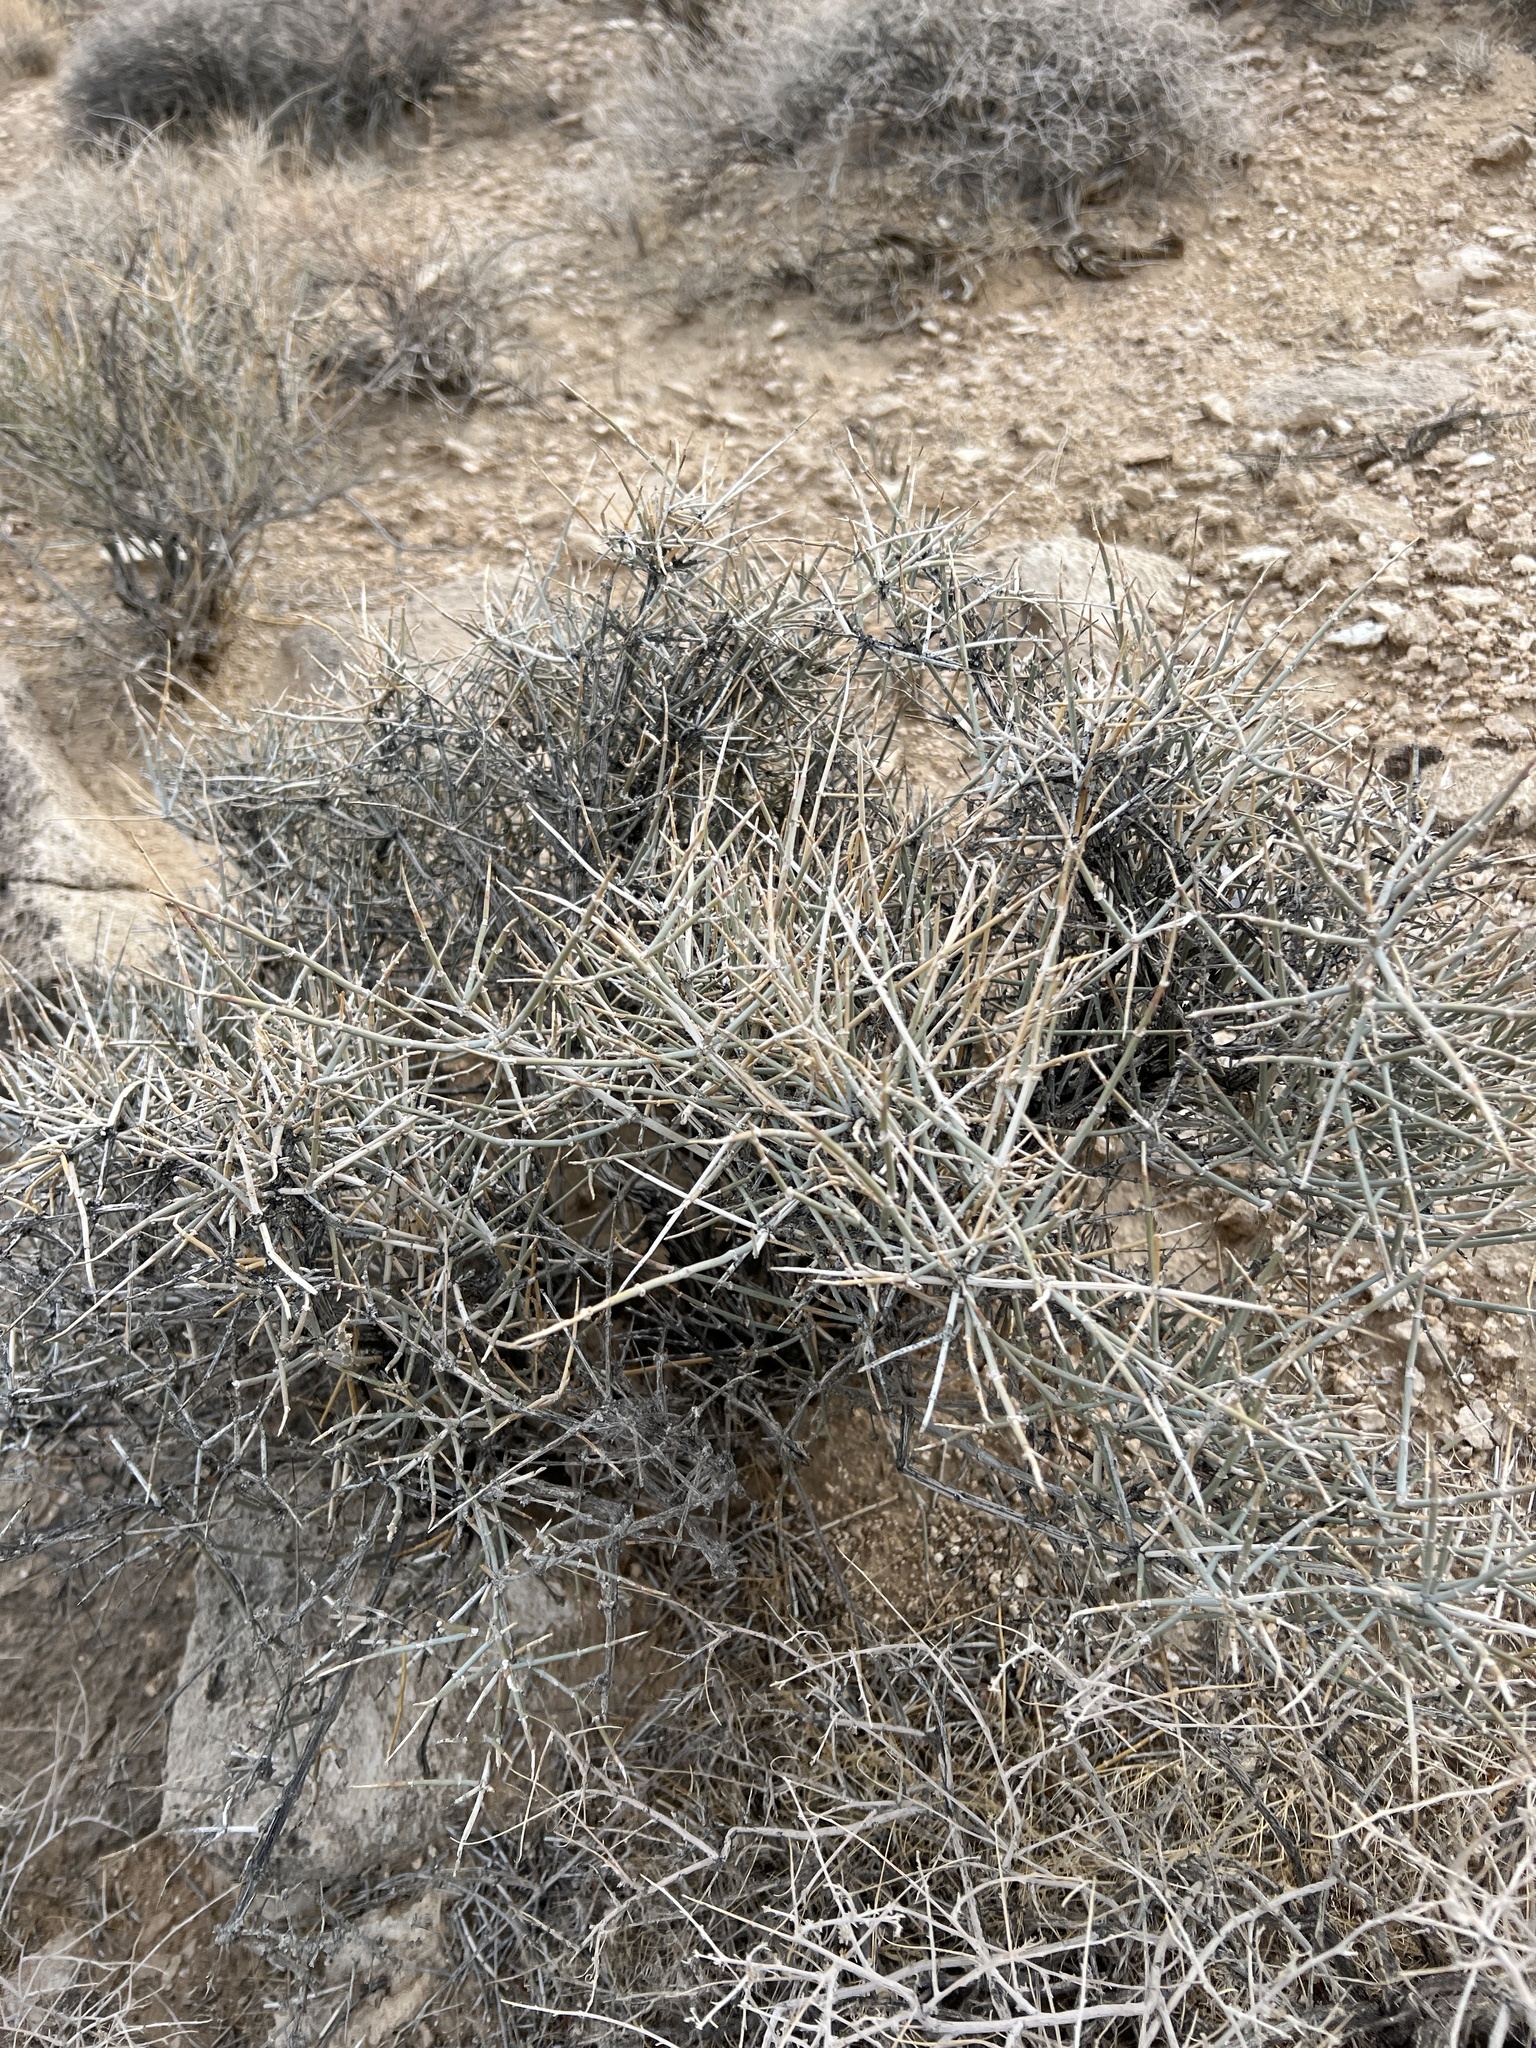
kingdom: Plantae
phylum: Tracheophyta
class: Gnetopsida
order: Ephedrales
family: Ephedraceae
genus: Ephedra
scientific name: Ephedra nevadensis
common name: Gray ephedra
